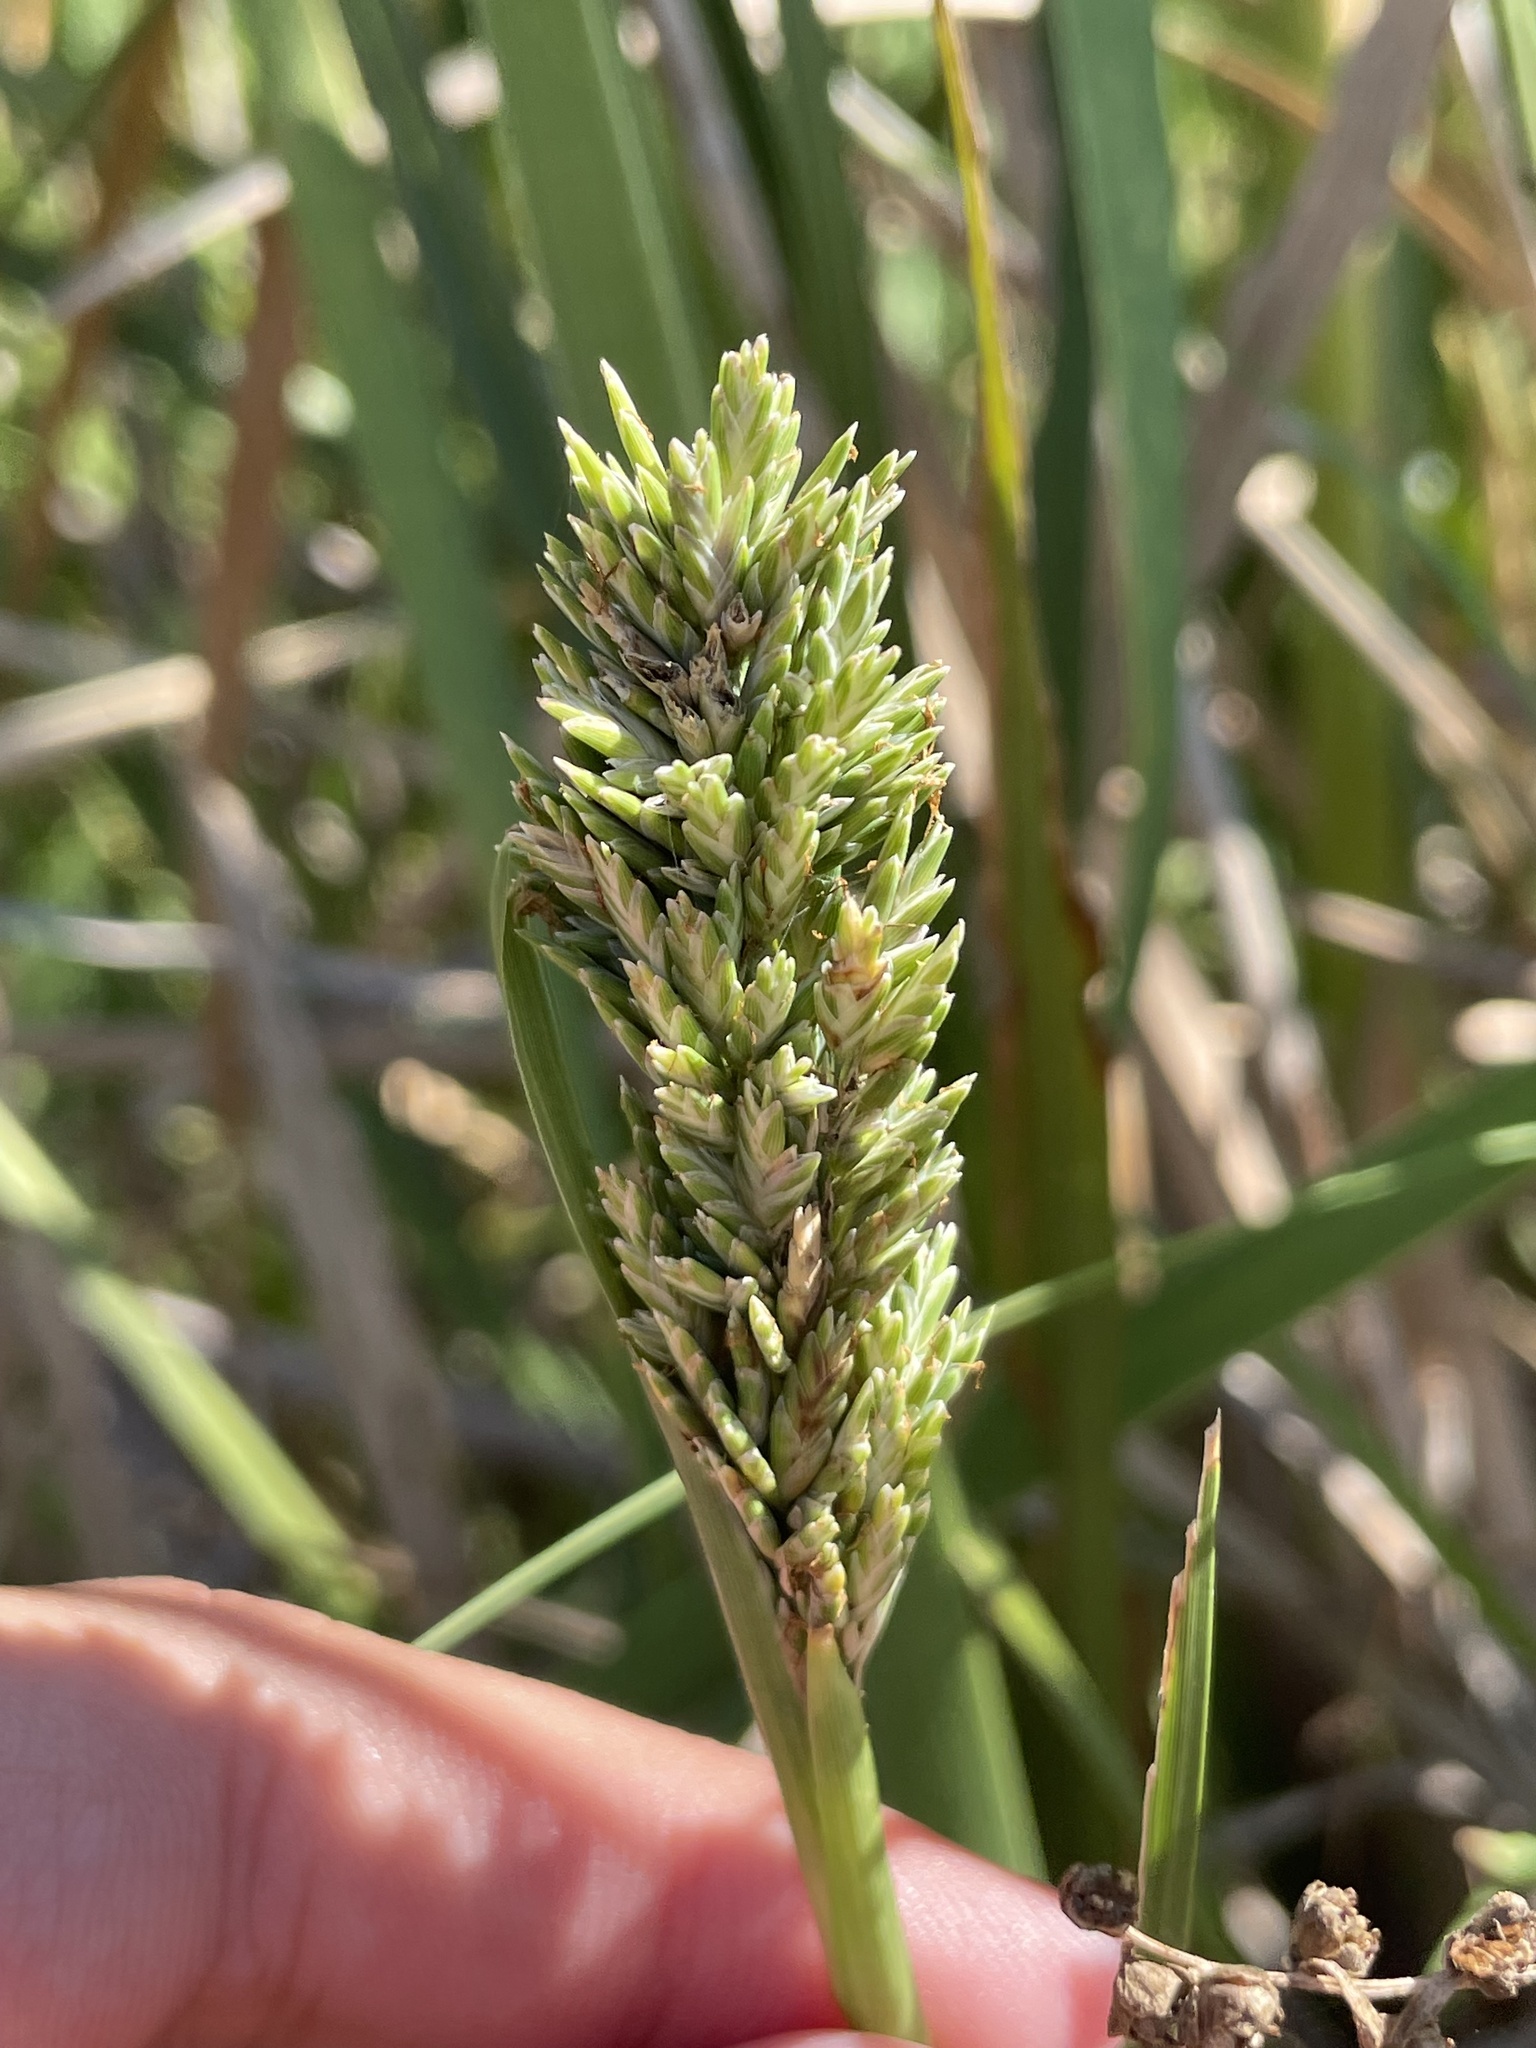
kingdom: Plantae
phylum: Tracheophyta
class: Liliopsida
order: Poales
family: Poaceae
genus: Distichlis
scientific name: Distichlis spicata
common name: Saltgrass
